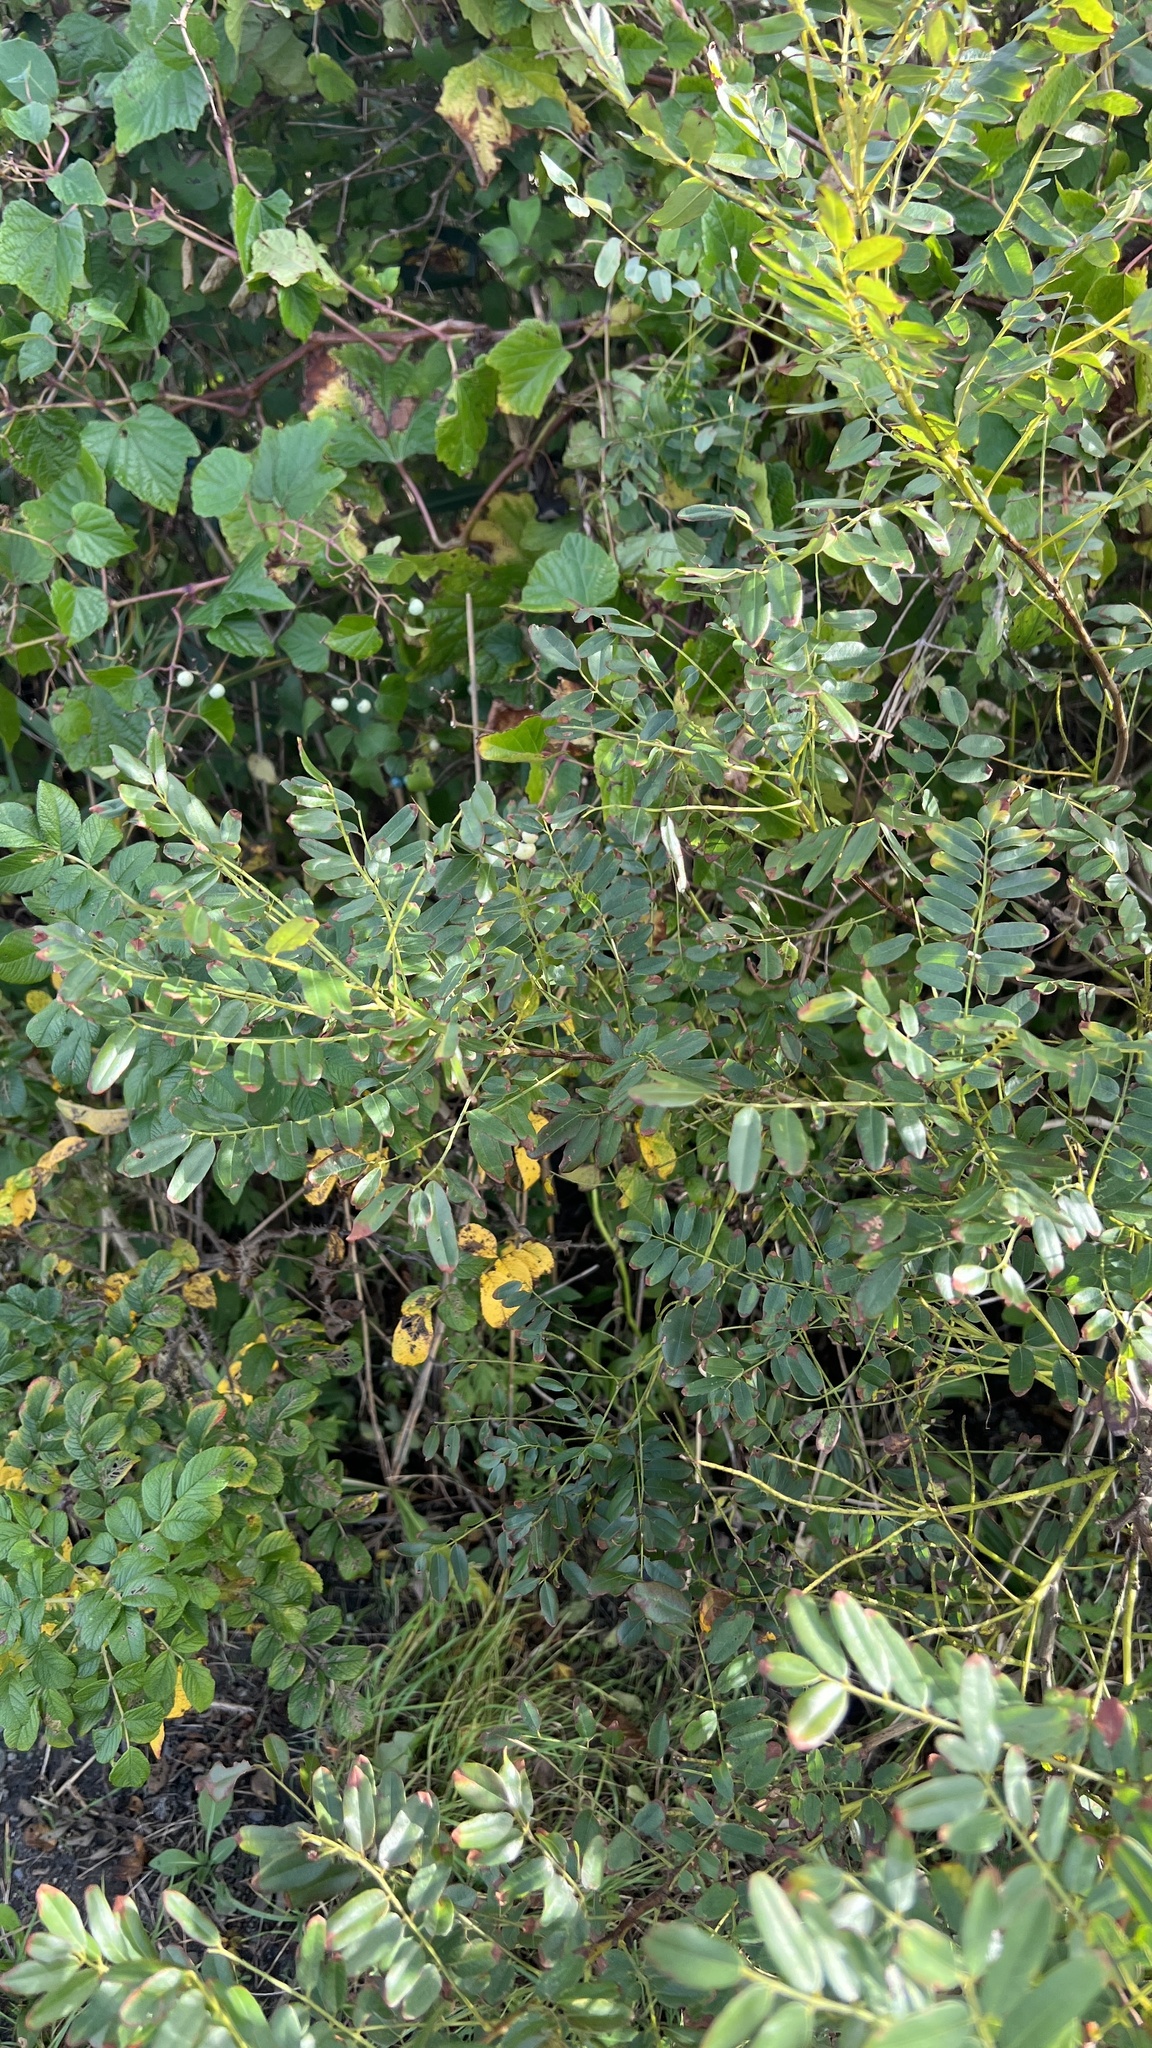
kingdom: Plantae
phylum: Tracheophyta
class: Magnoliopsida
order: Fabales
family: Fabaceae
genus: Amorpha
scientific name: Amorpha fruticosa
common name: False indigo
